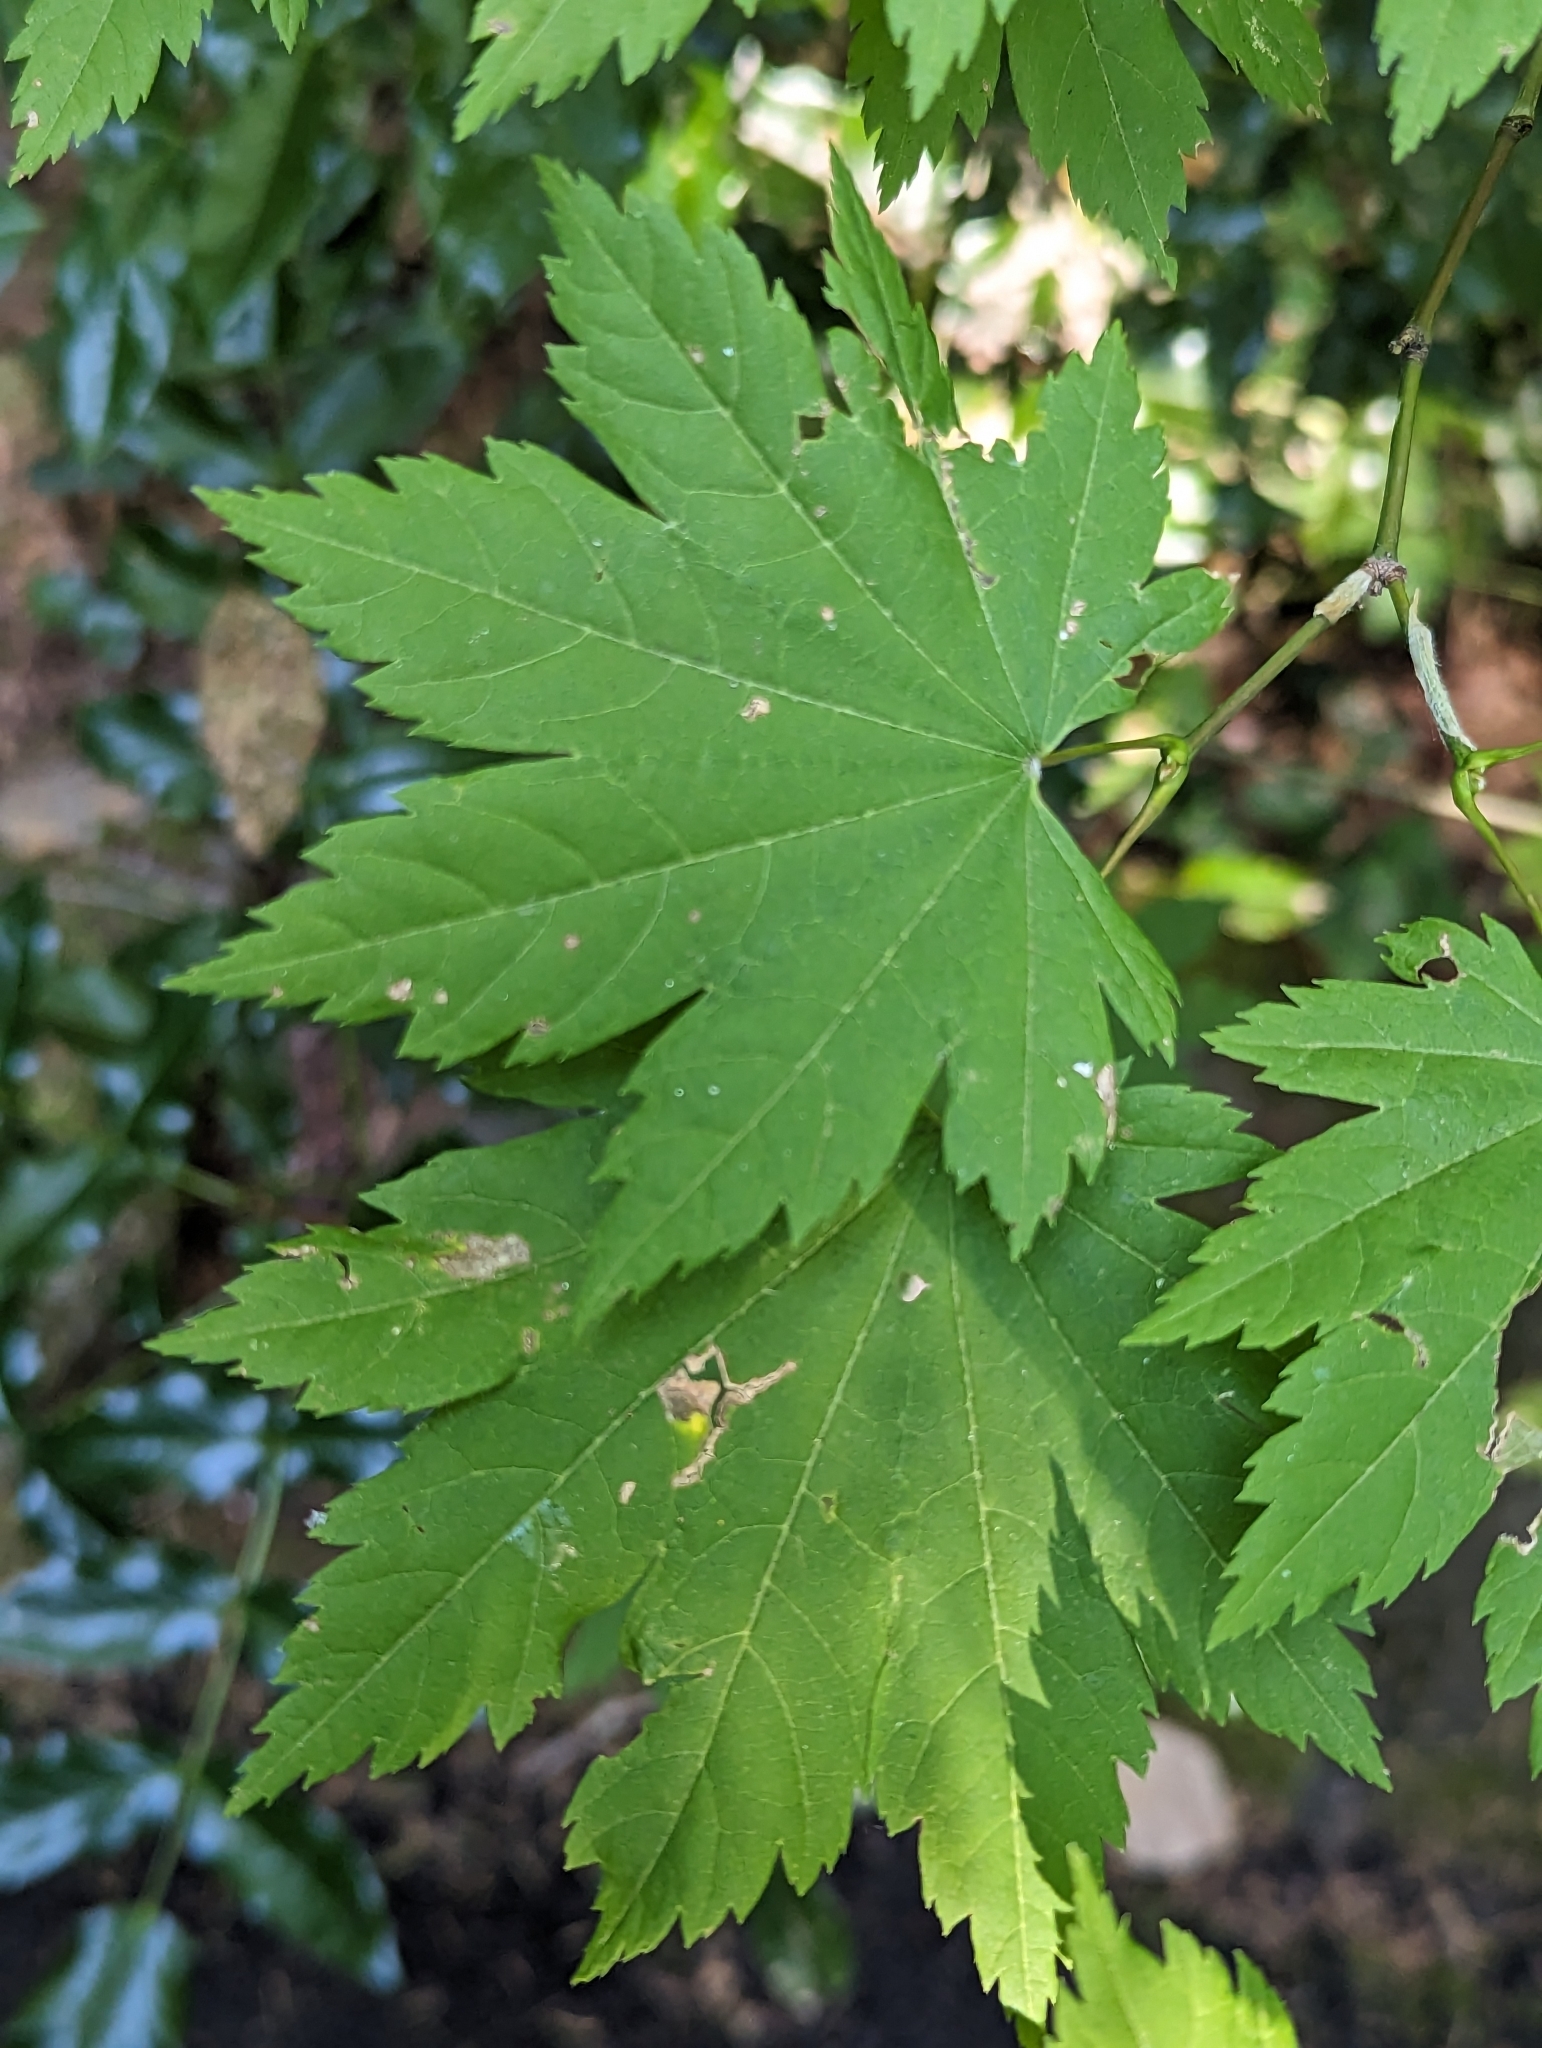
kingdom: Plantae
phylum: Tracheophyta
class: Magnoliopsida
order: Sapindales
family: Sapindaceae
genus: Acer
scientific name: Acer circinatum
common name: Vine maple
